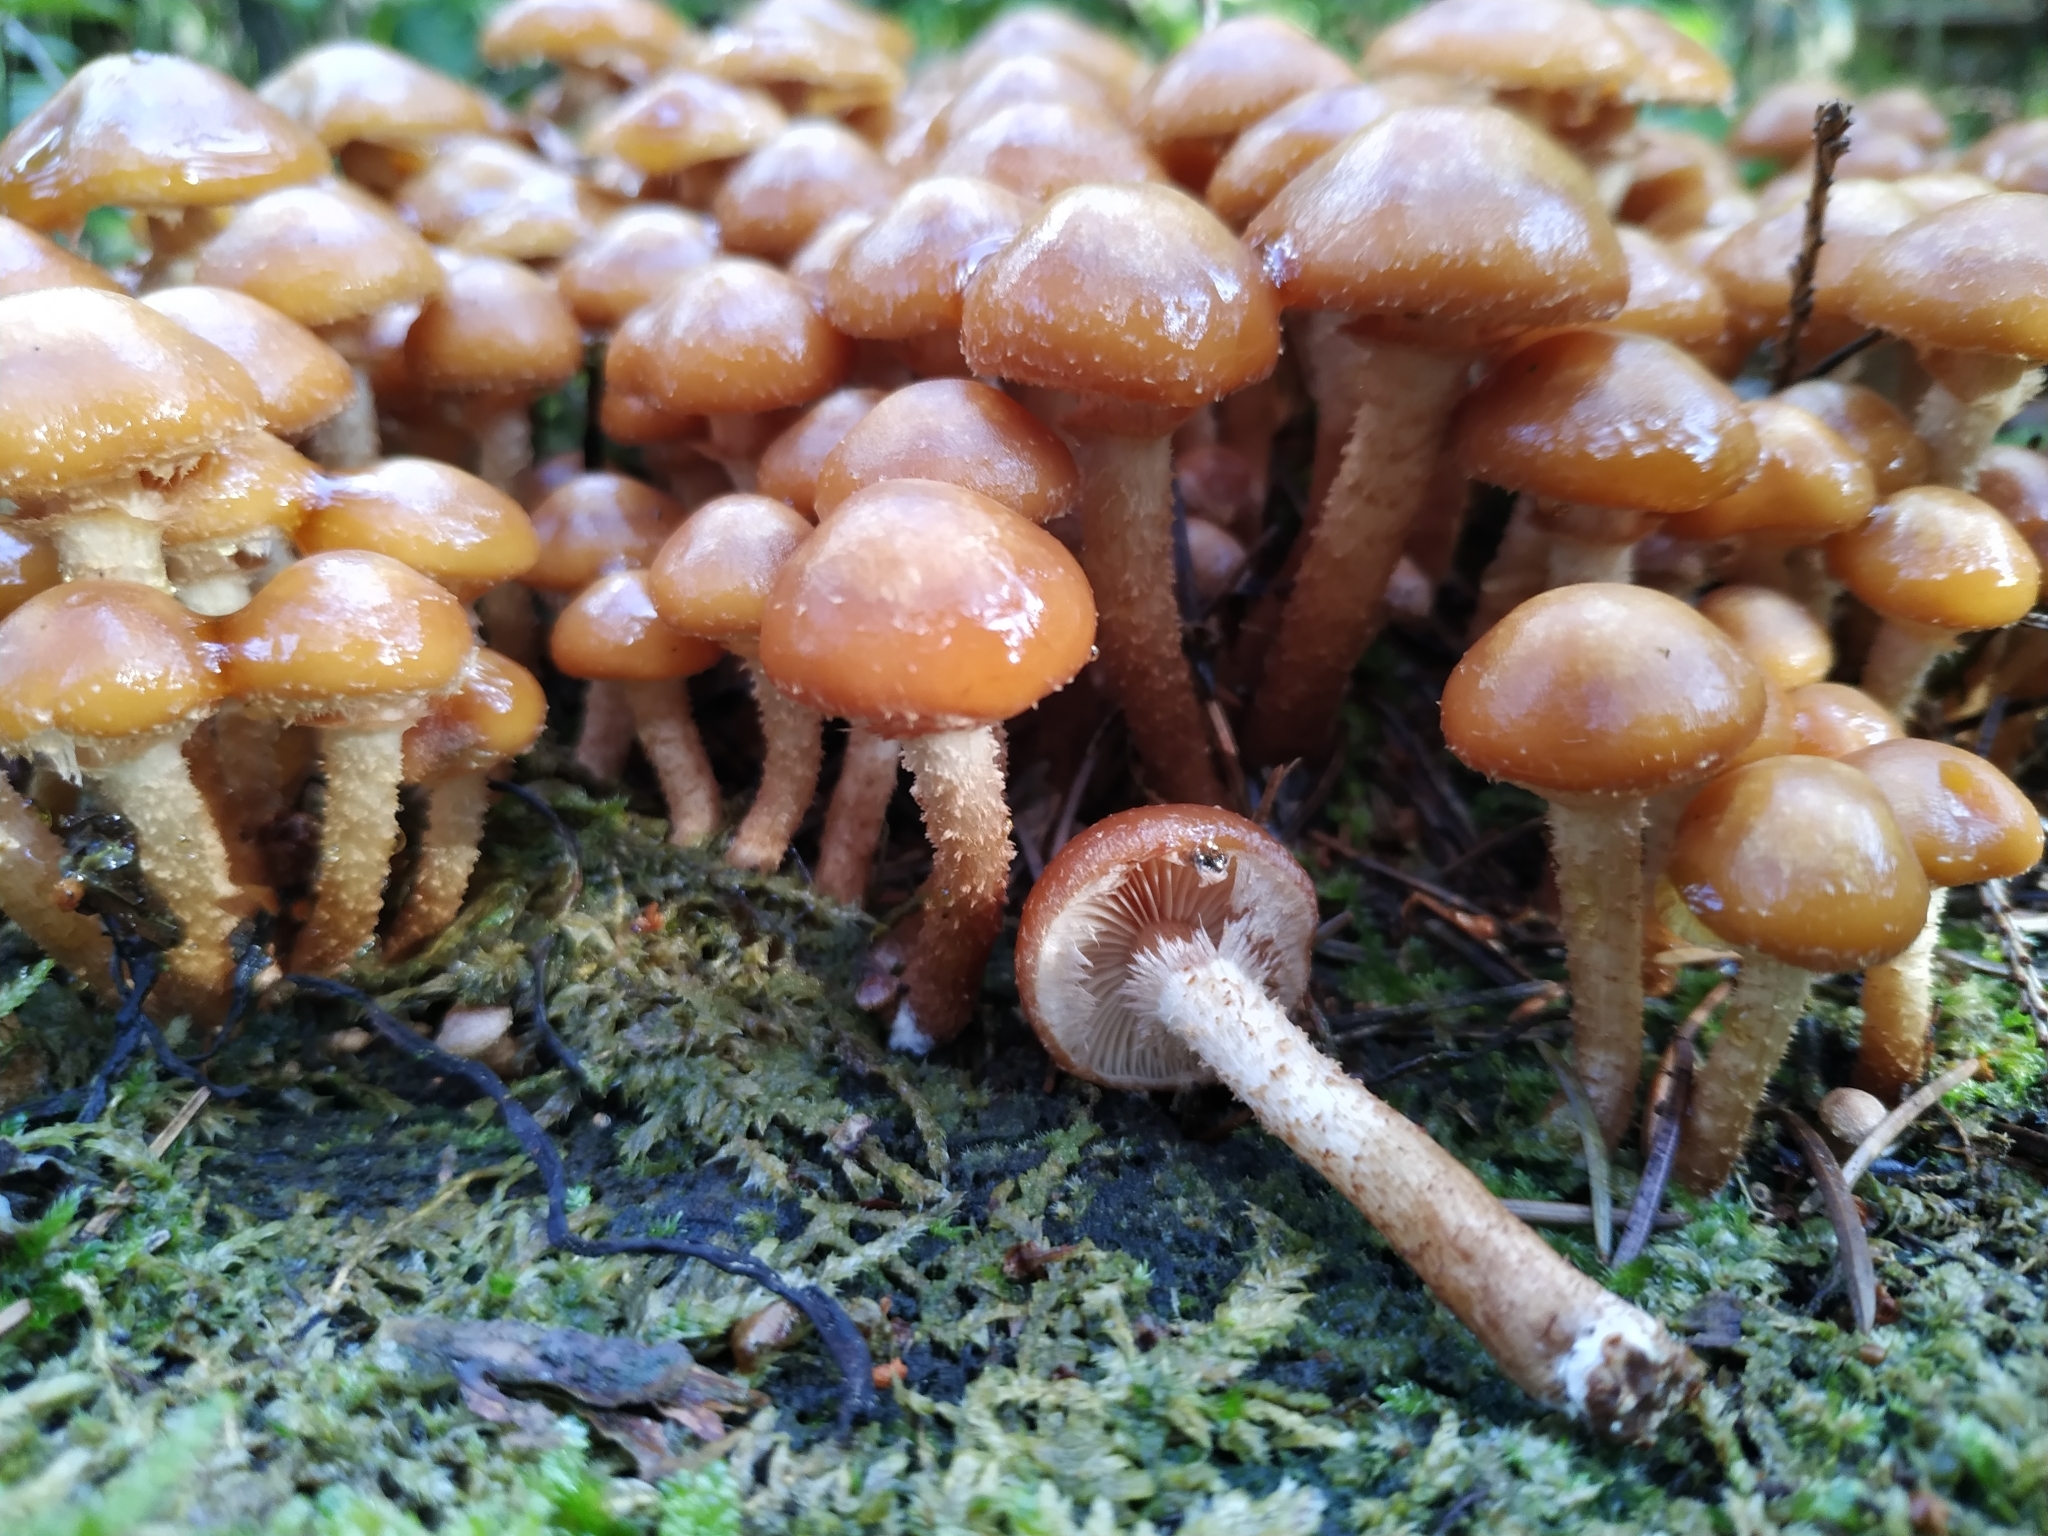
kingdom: Fungi
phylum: Basidiomycota
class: Agaricomycetes
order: Agaricales
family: Strophariaceae
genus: Kuehneromyces
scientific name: Kuehneromyces mutabilis
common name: Sheathed woodtuft
